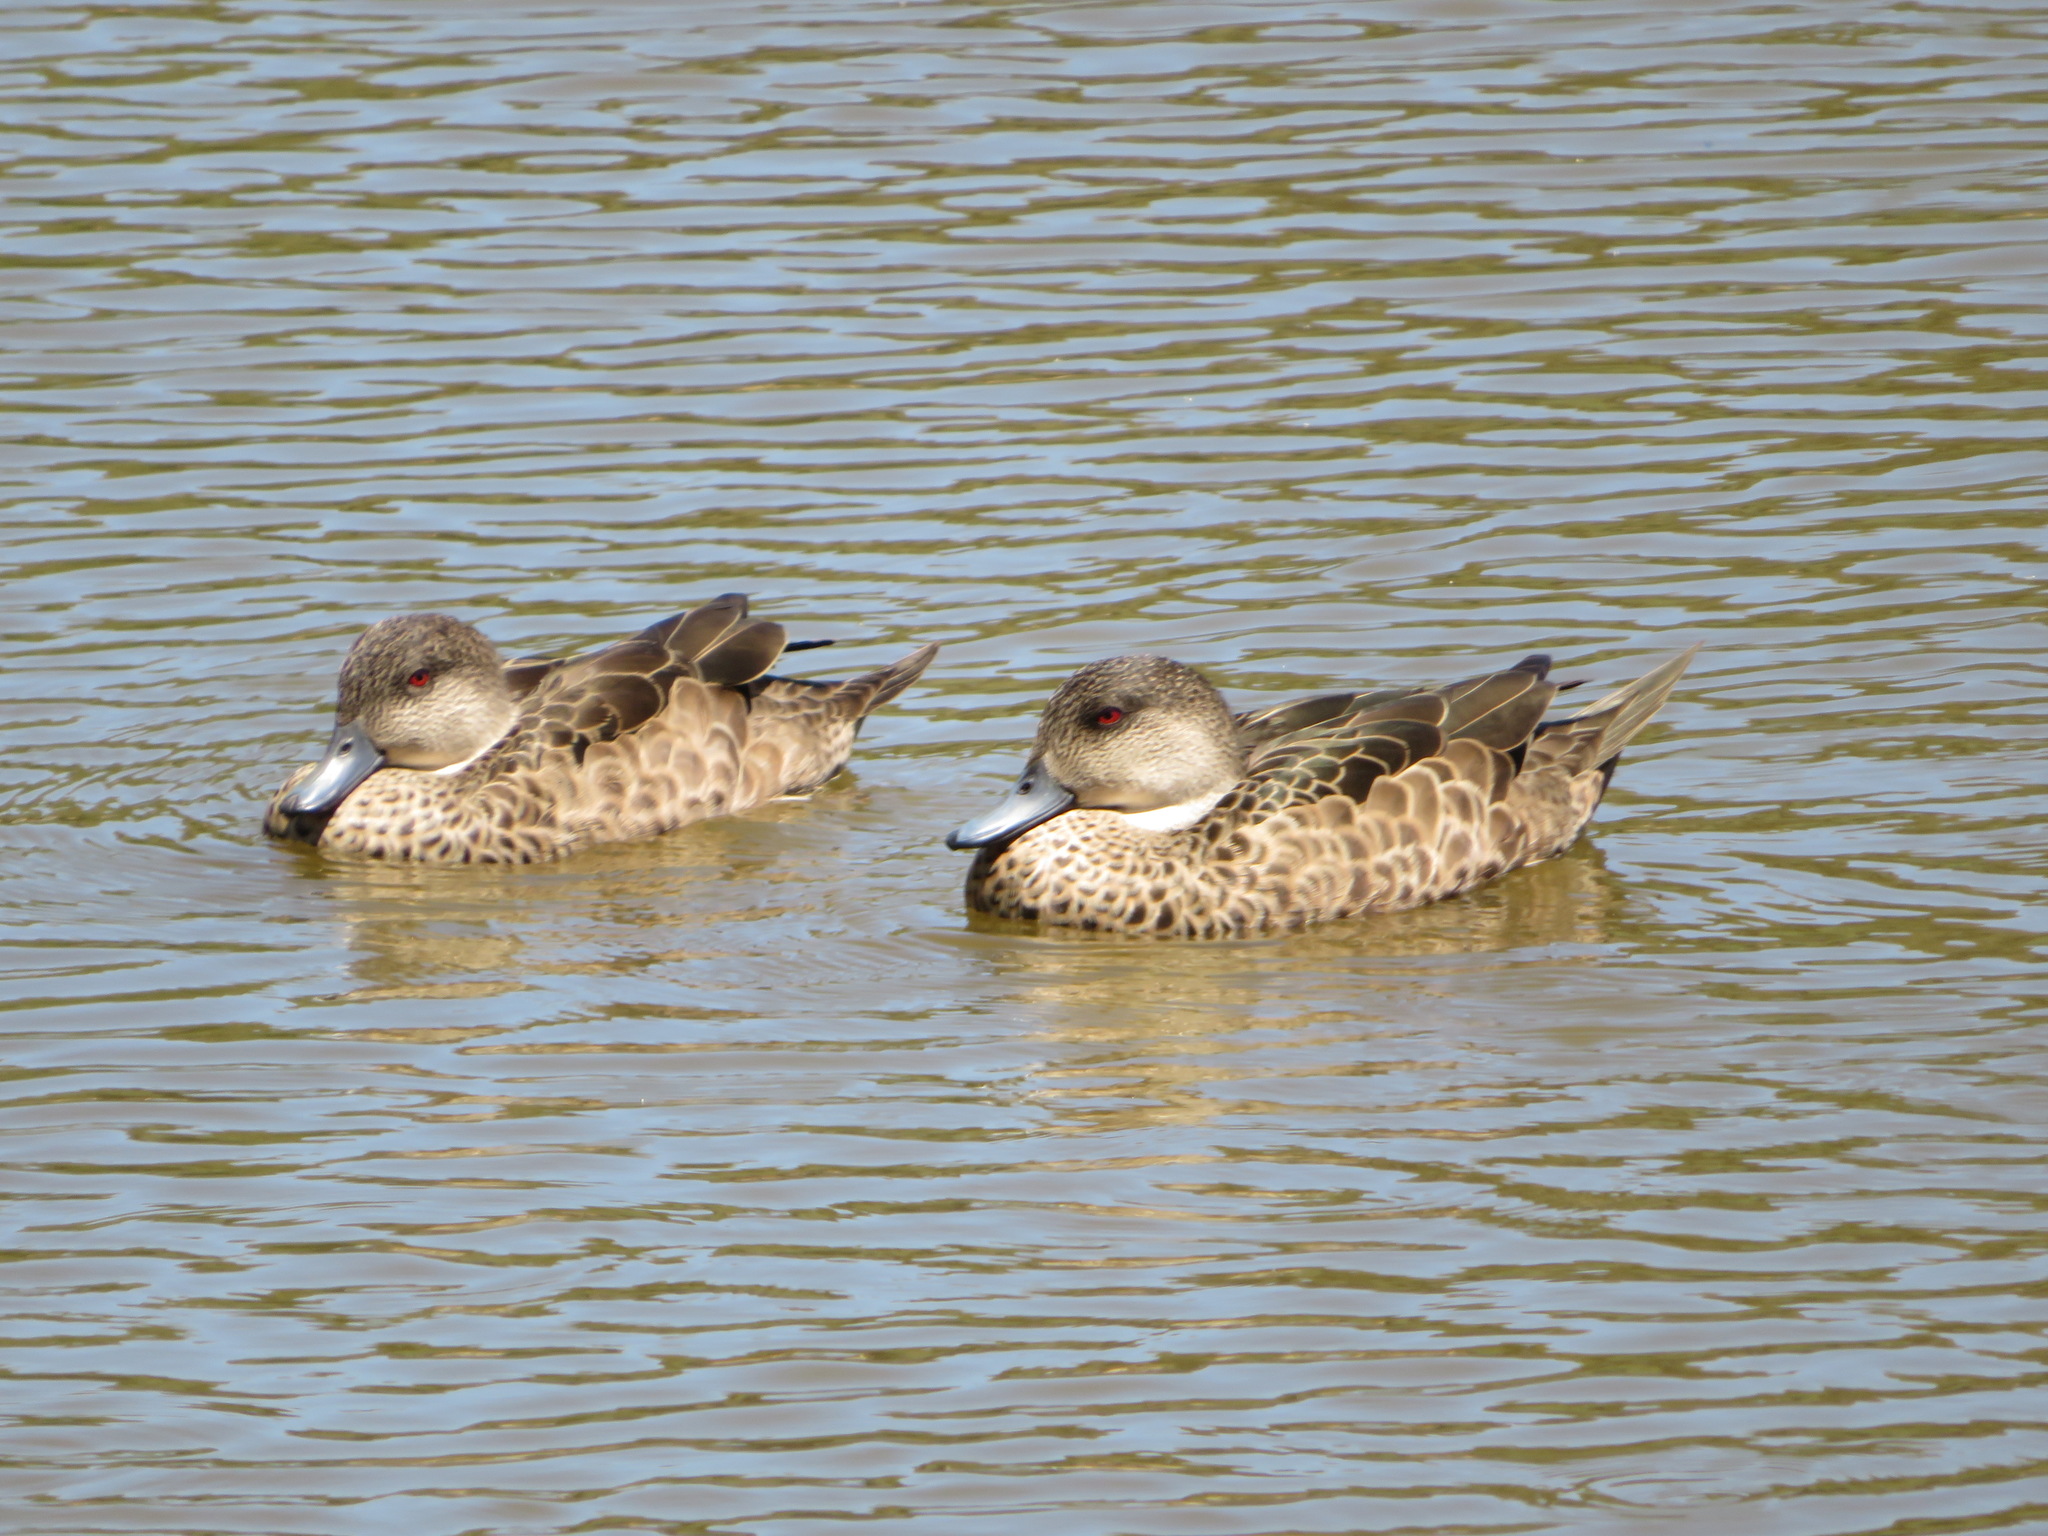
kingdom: Animalia
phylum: Chordata
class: Aves
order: Anseriformes
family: Anatidae
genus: Anas
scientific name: Anas gracilis
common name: Grey teal
